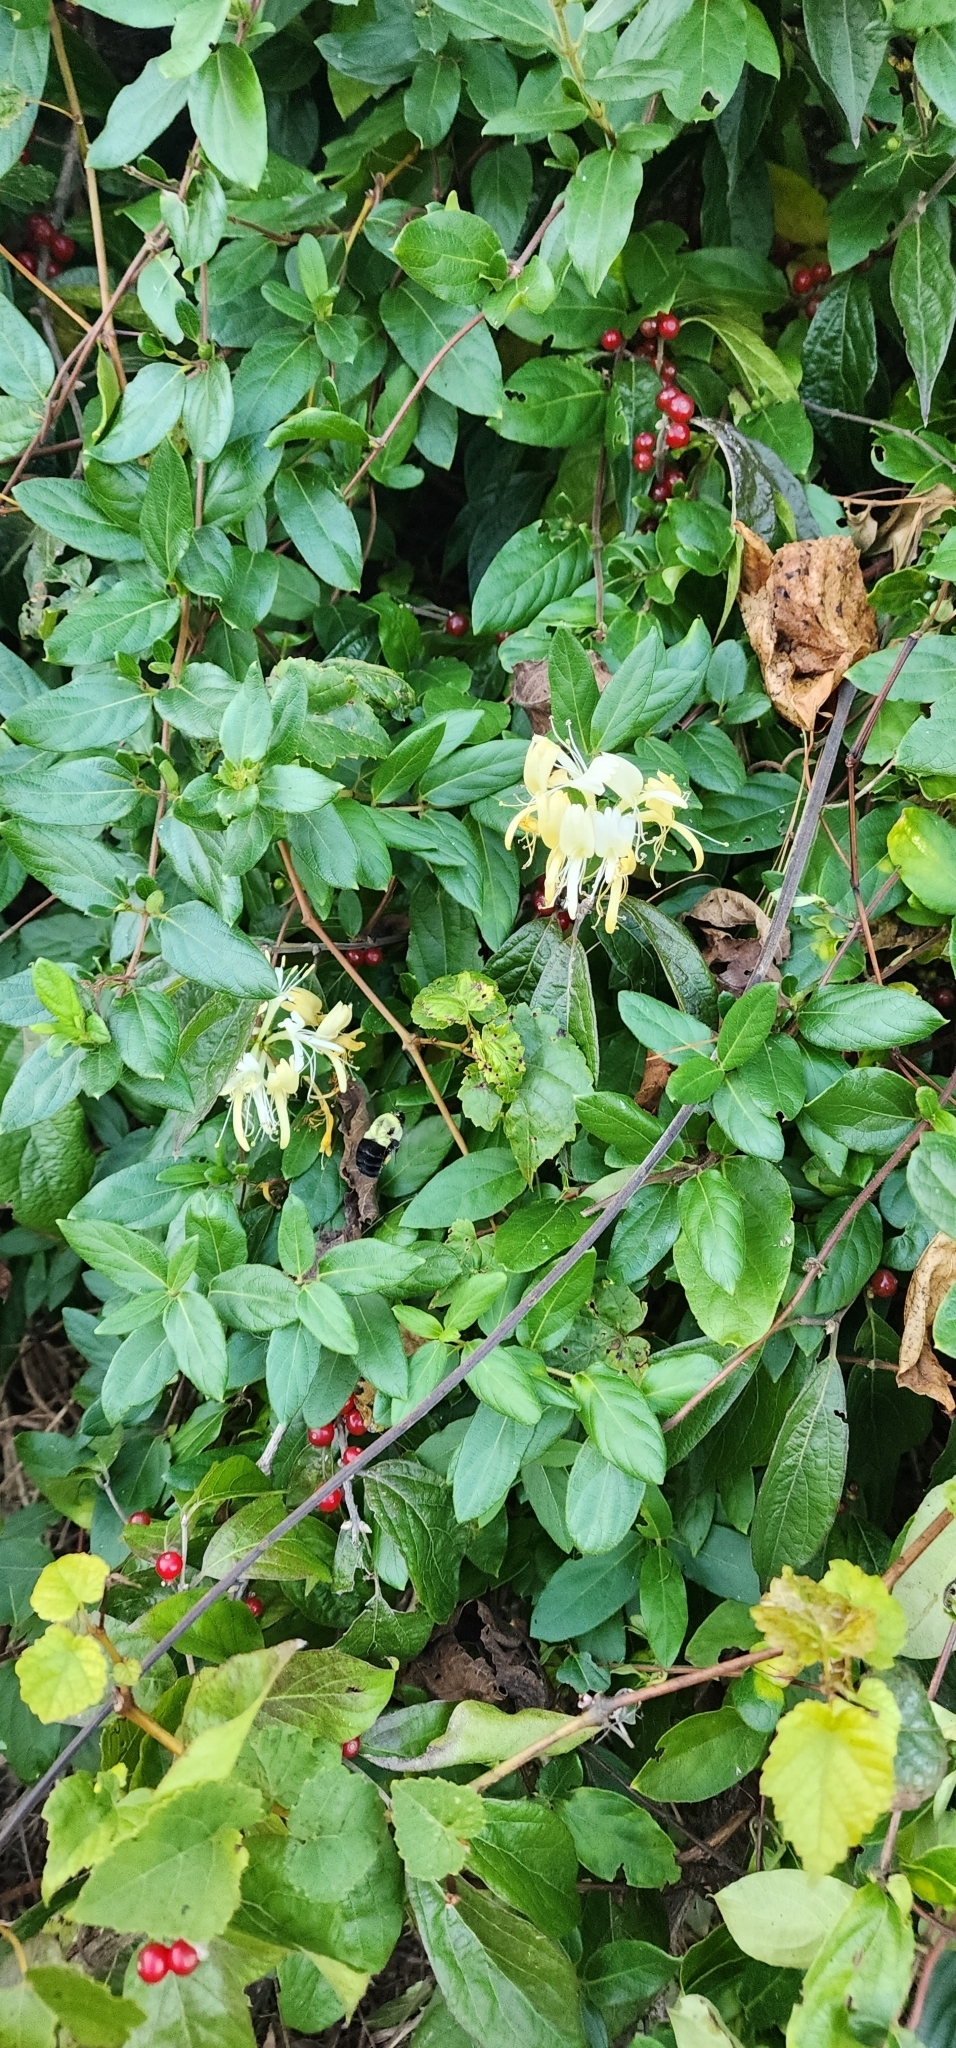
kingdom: Plantae
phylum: Tracheophyta
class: Magnoliopsida
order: Dipsacales
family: Caprifoliaceae
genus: Lonicera
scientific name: Lonicera japonica
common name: Japanese honeysuckle
